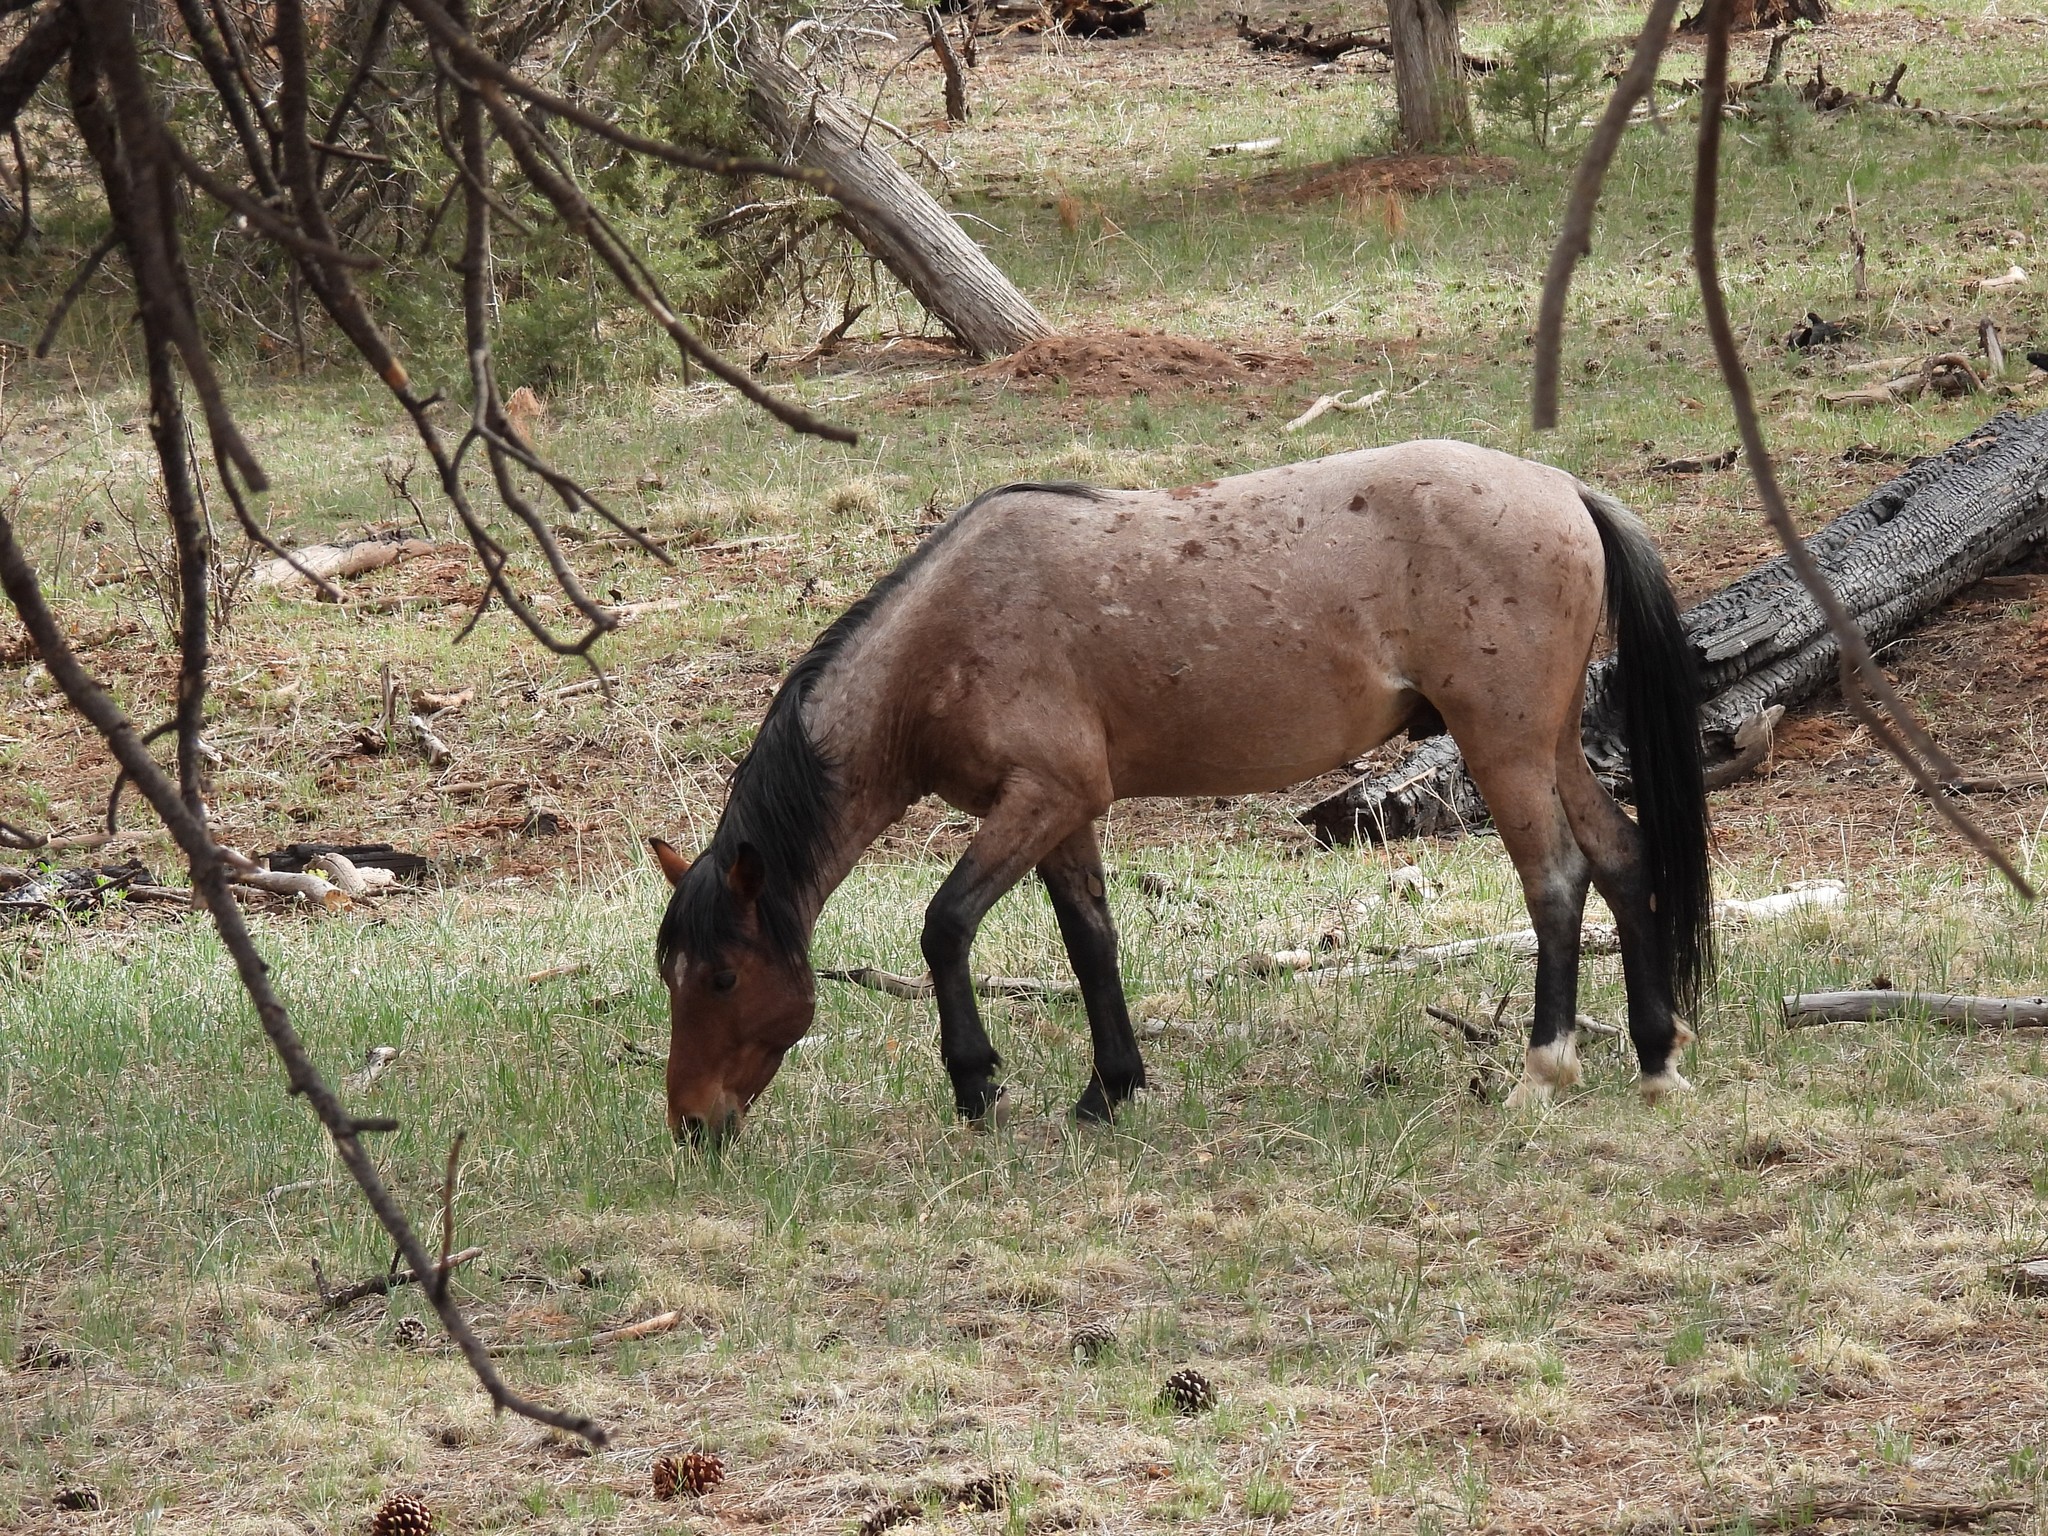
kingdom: Animalia
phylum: Chordata
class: Mammalia
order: Perissodactyla
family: Equidae
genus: Equus
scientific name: Equus caballus
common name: Horse
